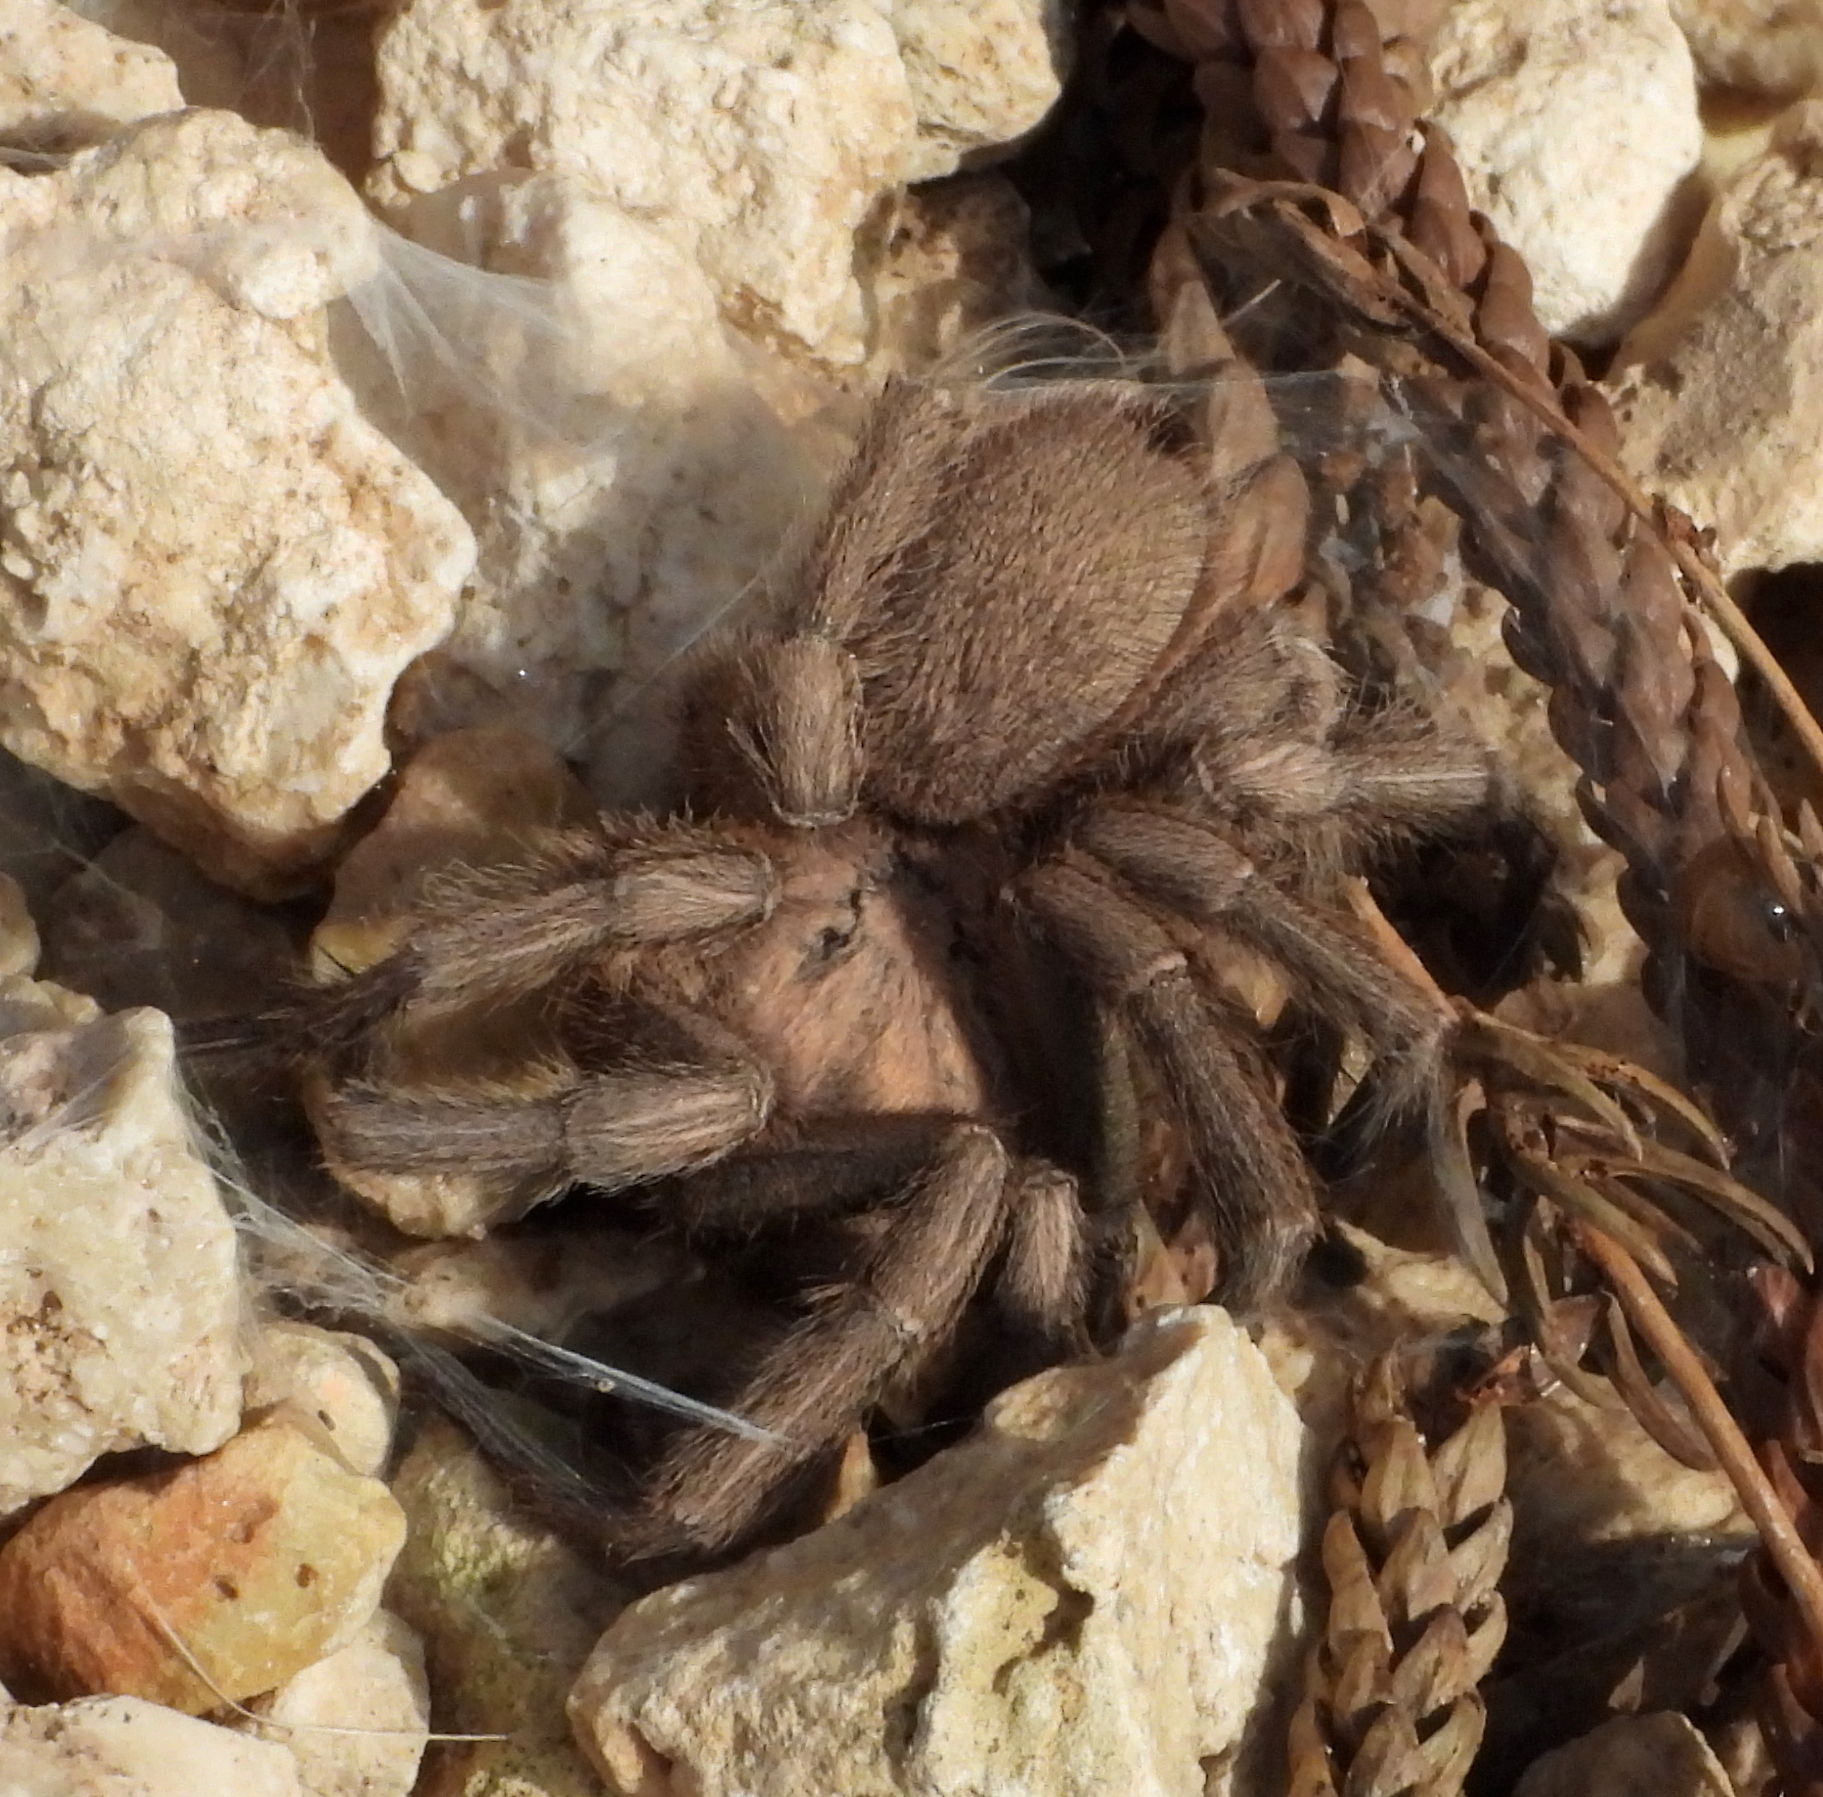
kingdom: Animalia
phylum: Arthropoda
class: Arachnida
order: Araneae
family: Theraphosidae
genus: Chaetopelma
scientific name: Chaetopelma olivaceum
